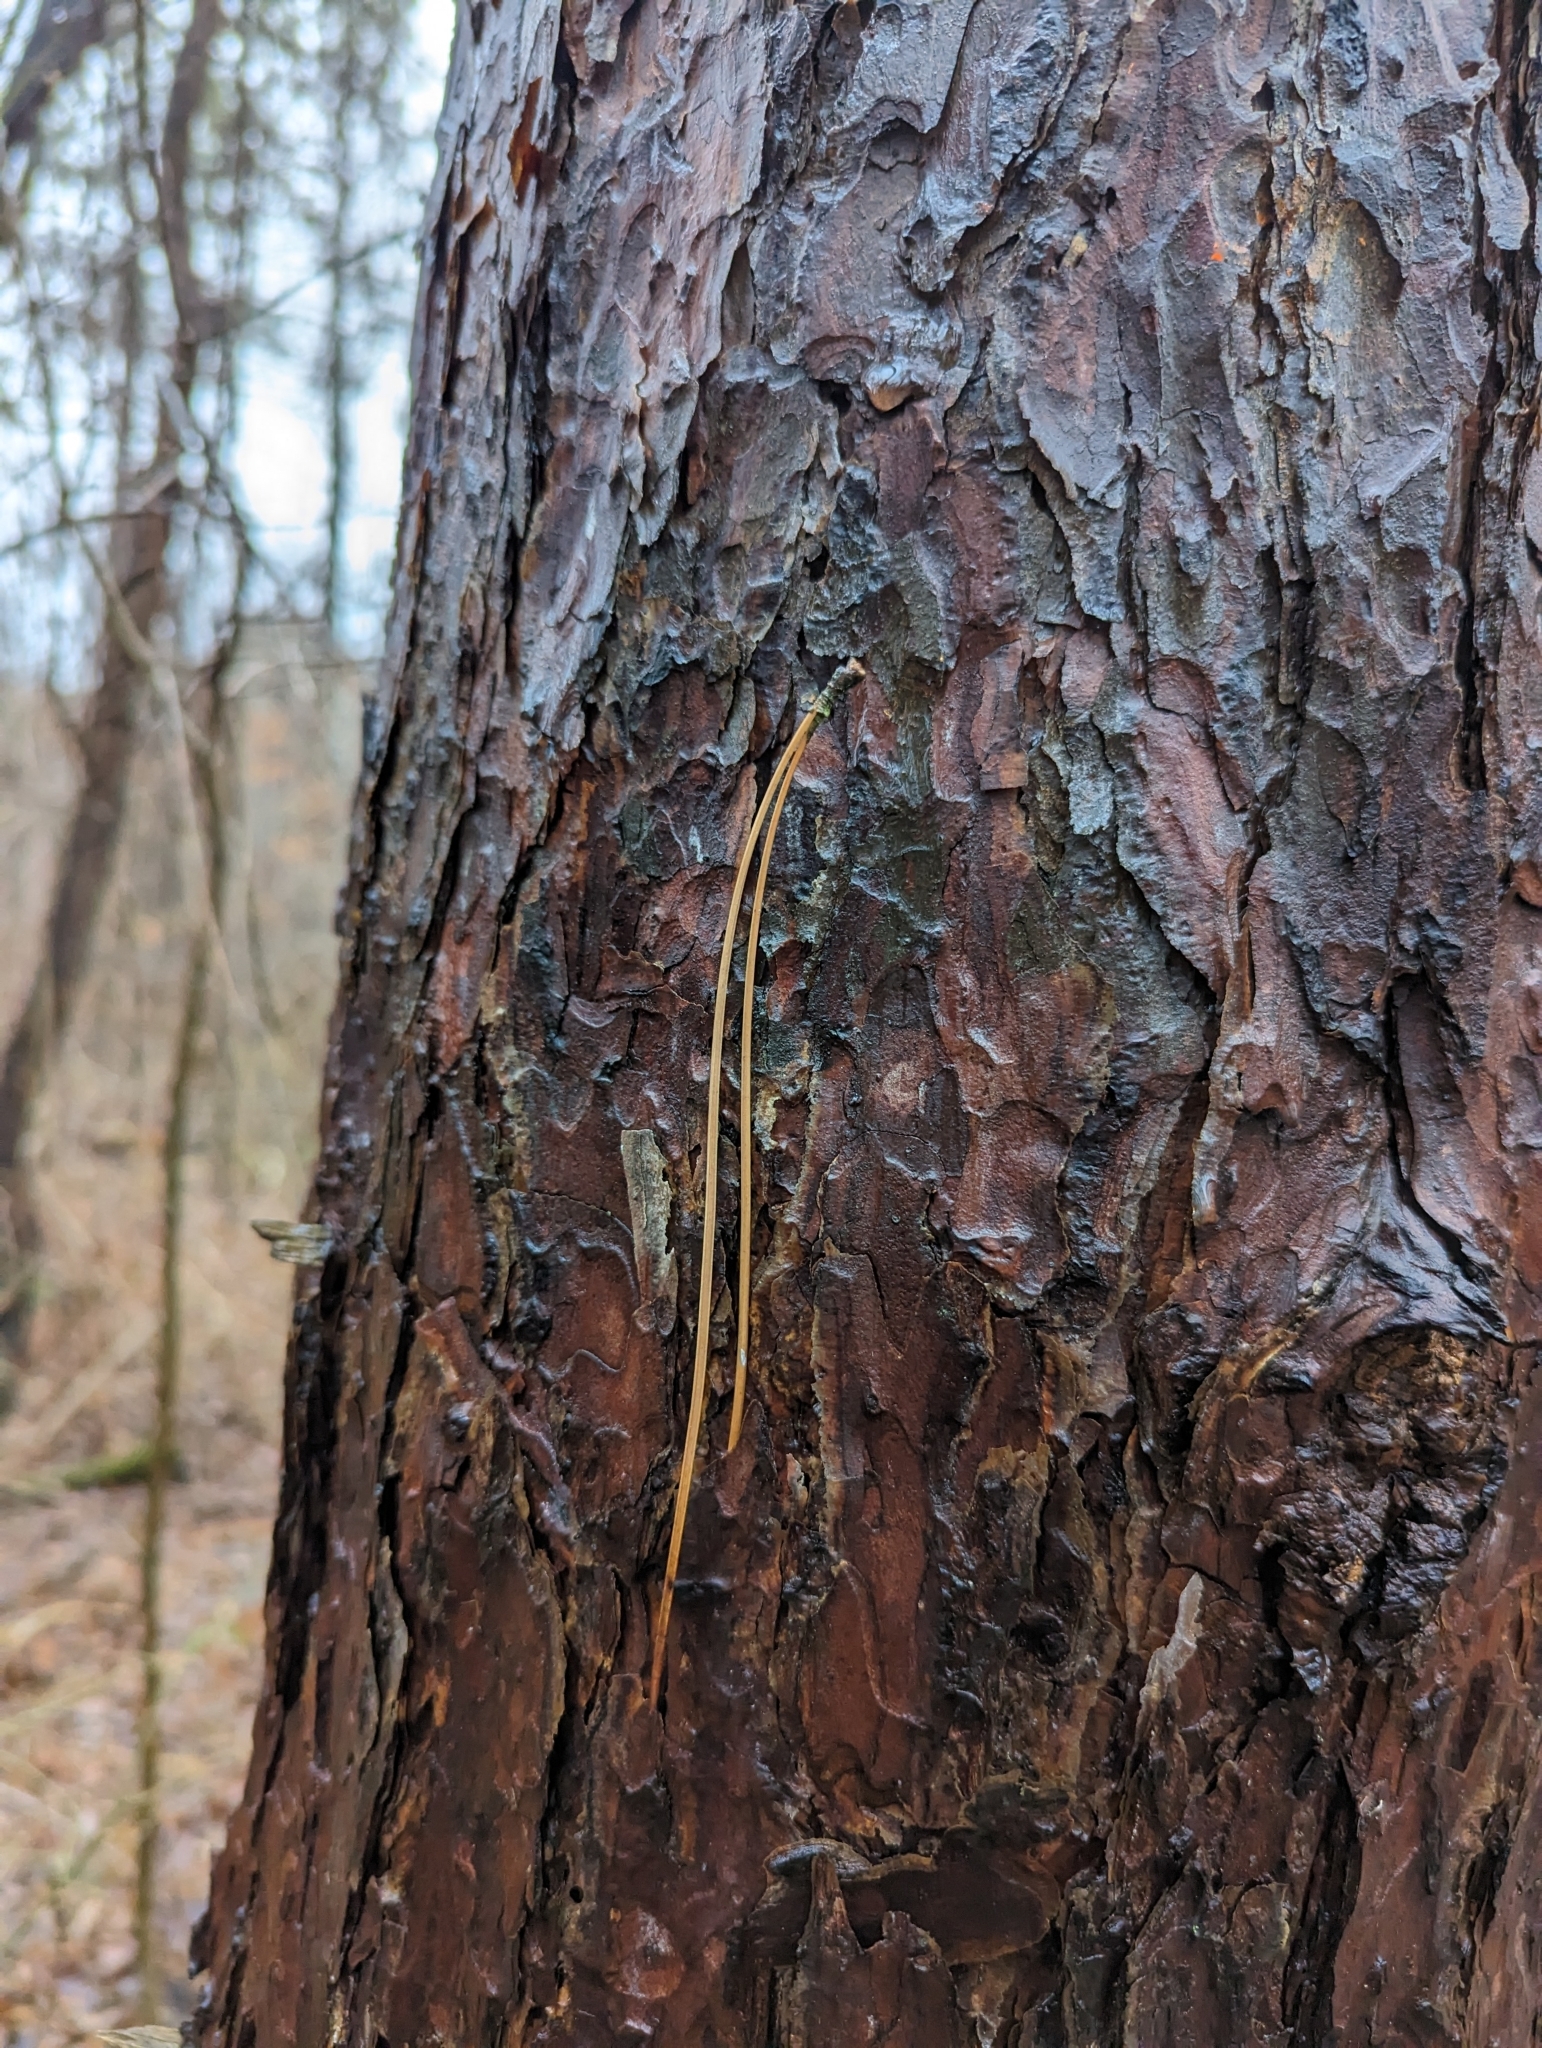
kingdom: Plantae
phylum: Tracheophyta
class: Pinopsida
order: Pinales
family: Pinaceae
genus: Pinus
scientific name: Pinus resinosa
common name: Norway pine
